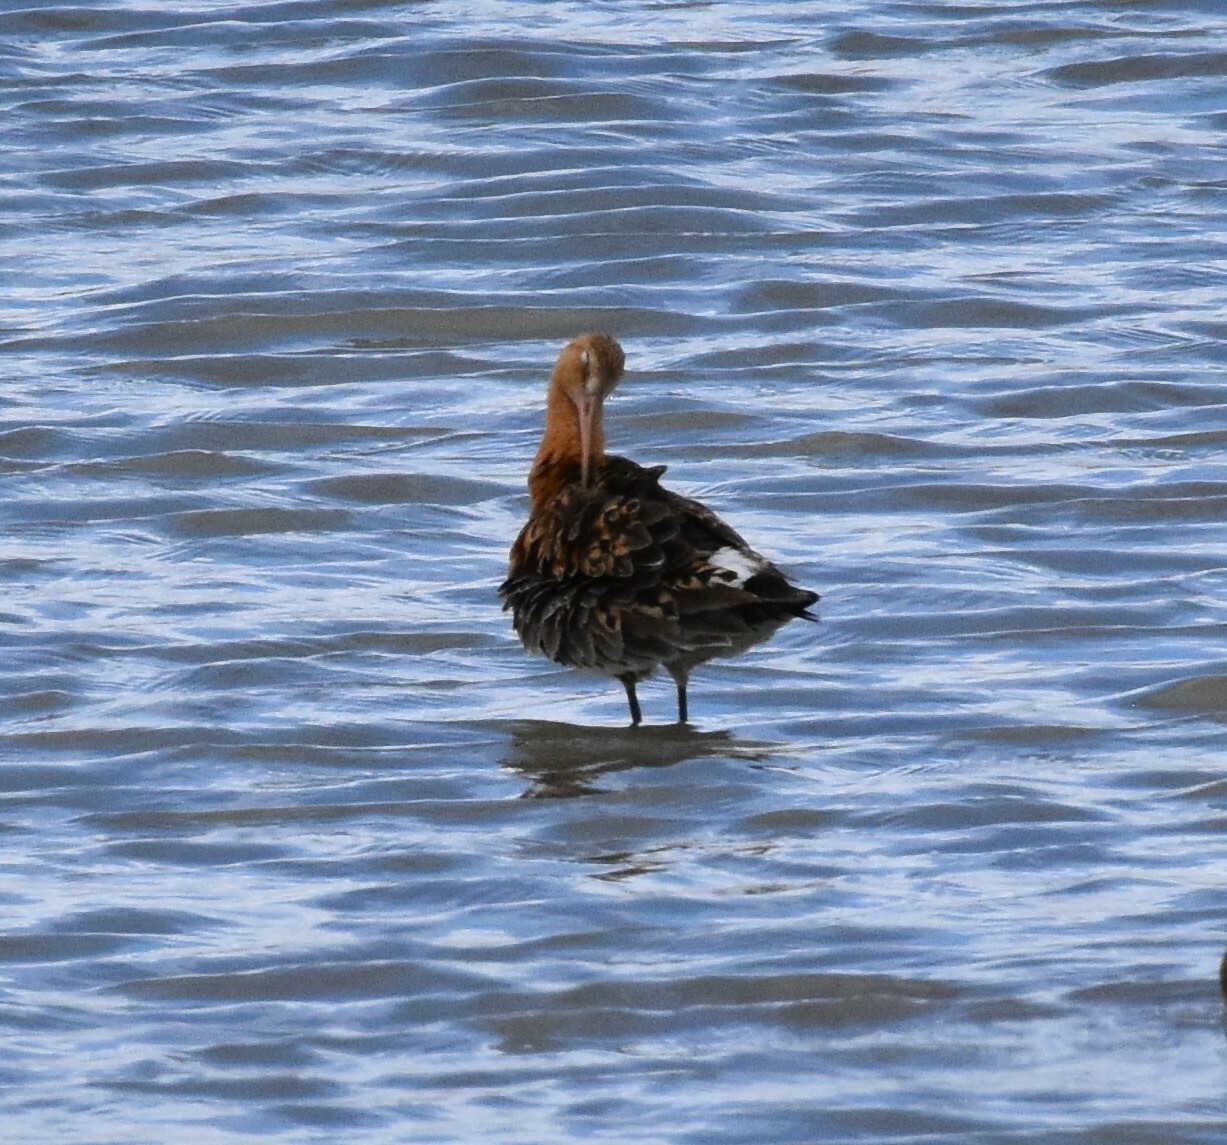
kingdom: Animalia
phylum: Chordata
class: Aves
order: Charadriiformes
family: Scolopacidae
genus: Limosa
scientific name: Limosa limosa
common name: Black-tailed godwit
